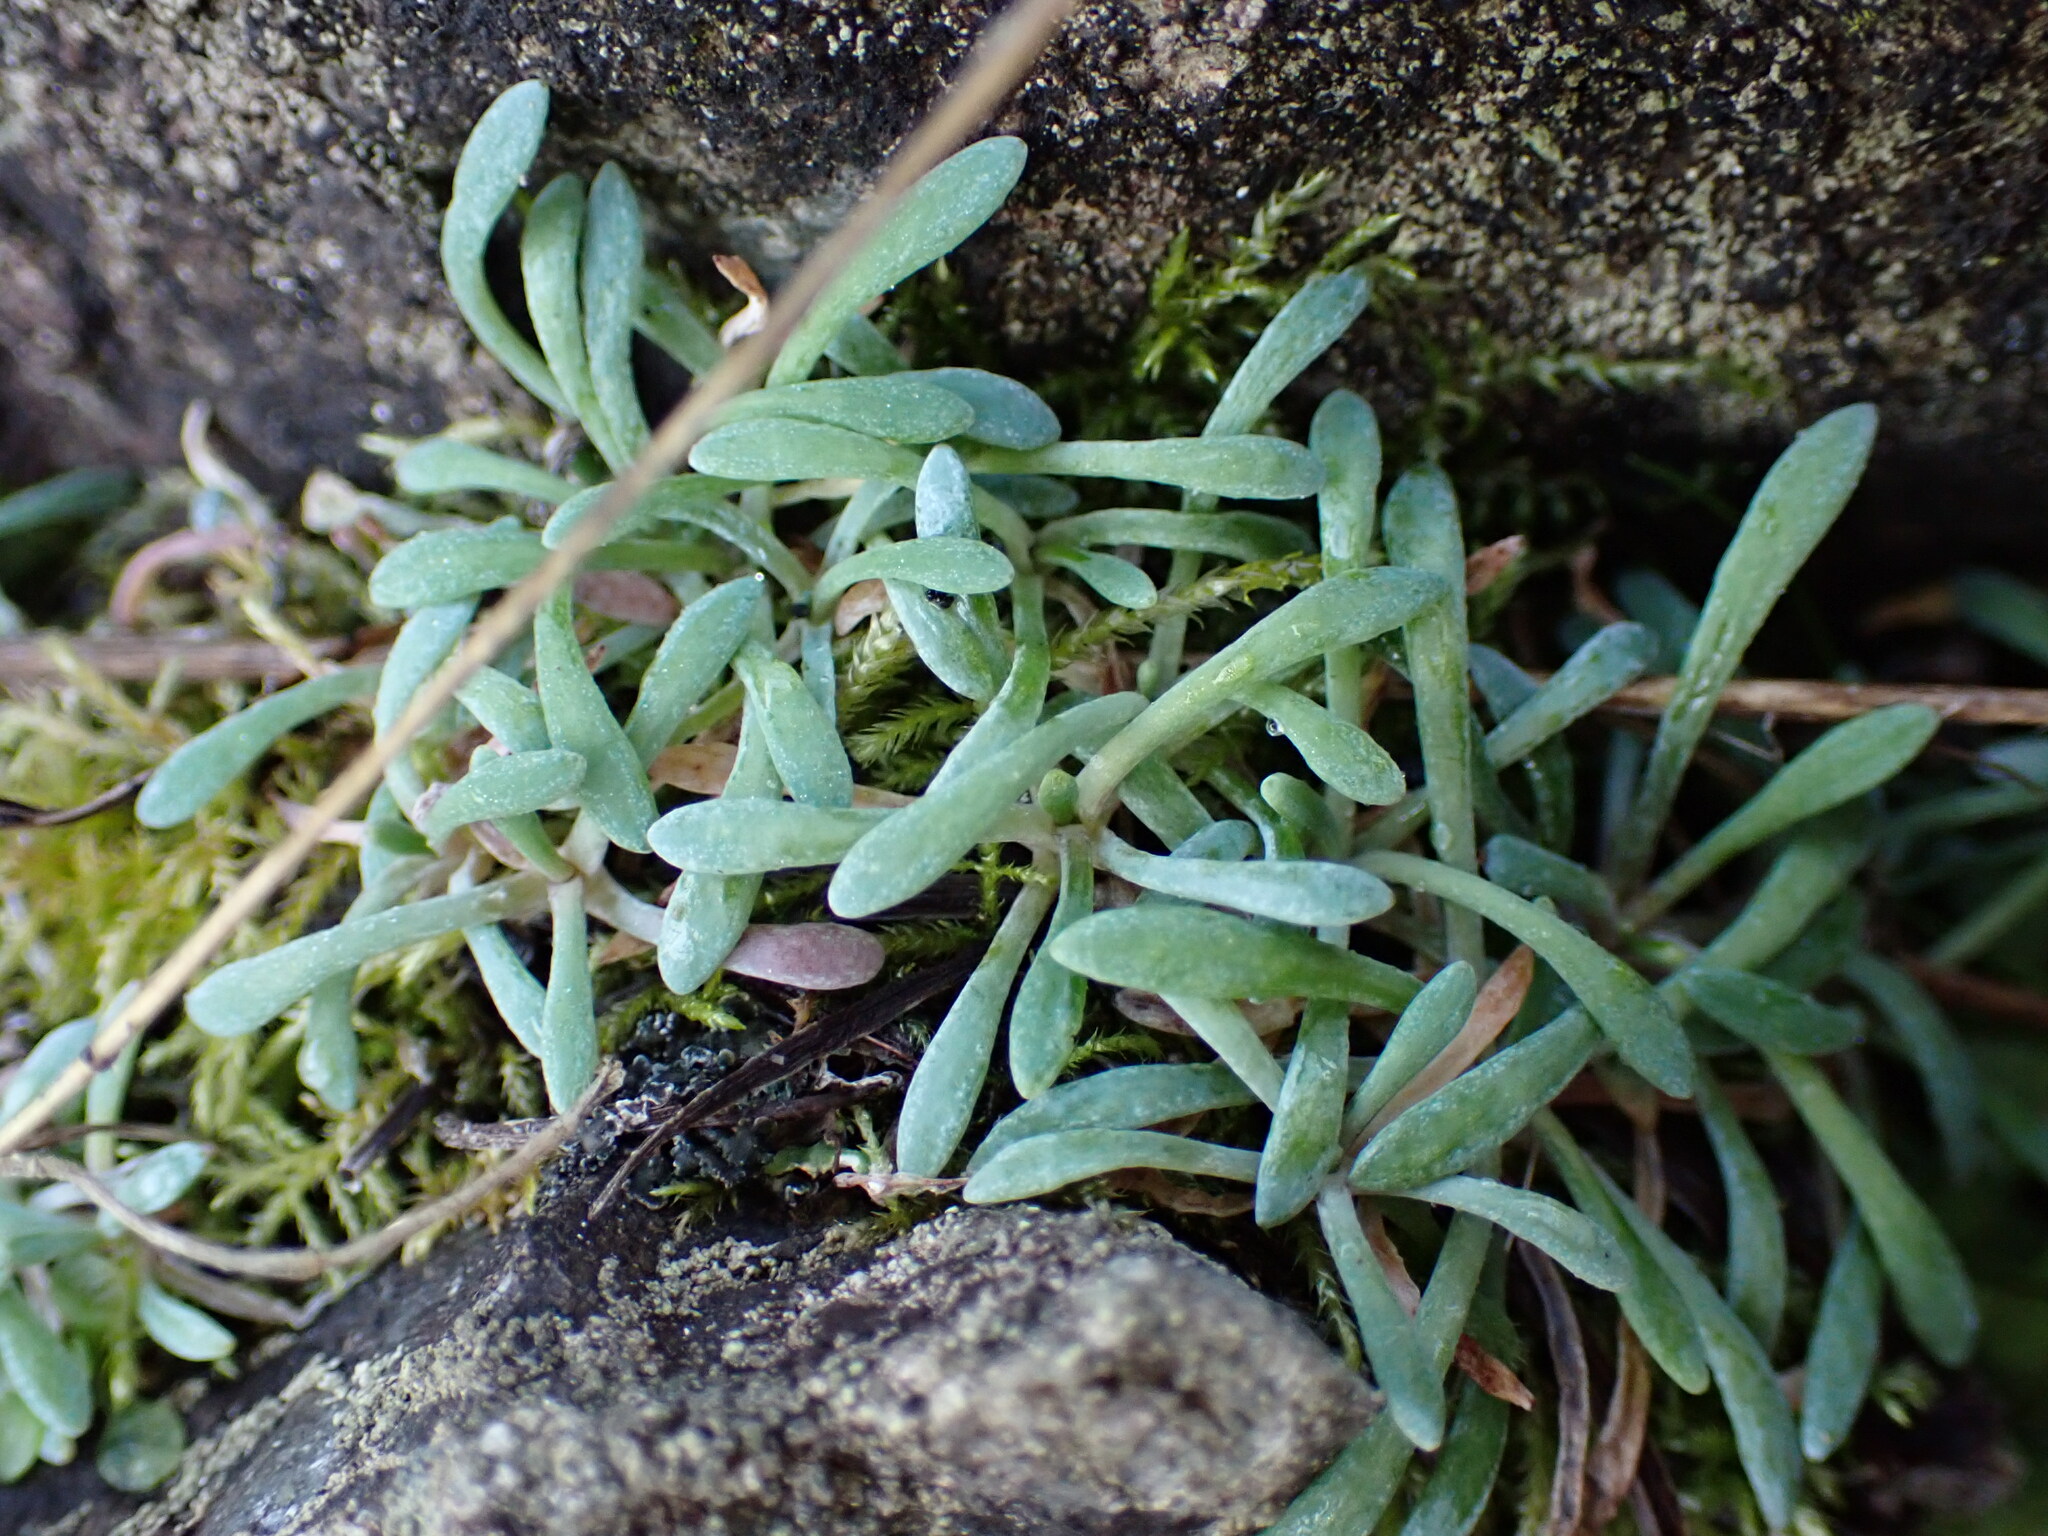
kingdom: Plantae
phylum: Tracheophyta
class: Magnoliopsida
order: Caryophyllales
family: Montiaceae
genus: Claytonia
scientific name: Claytonia exigua
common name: Pale spring beauty
